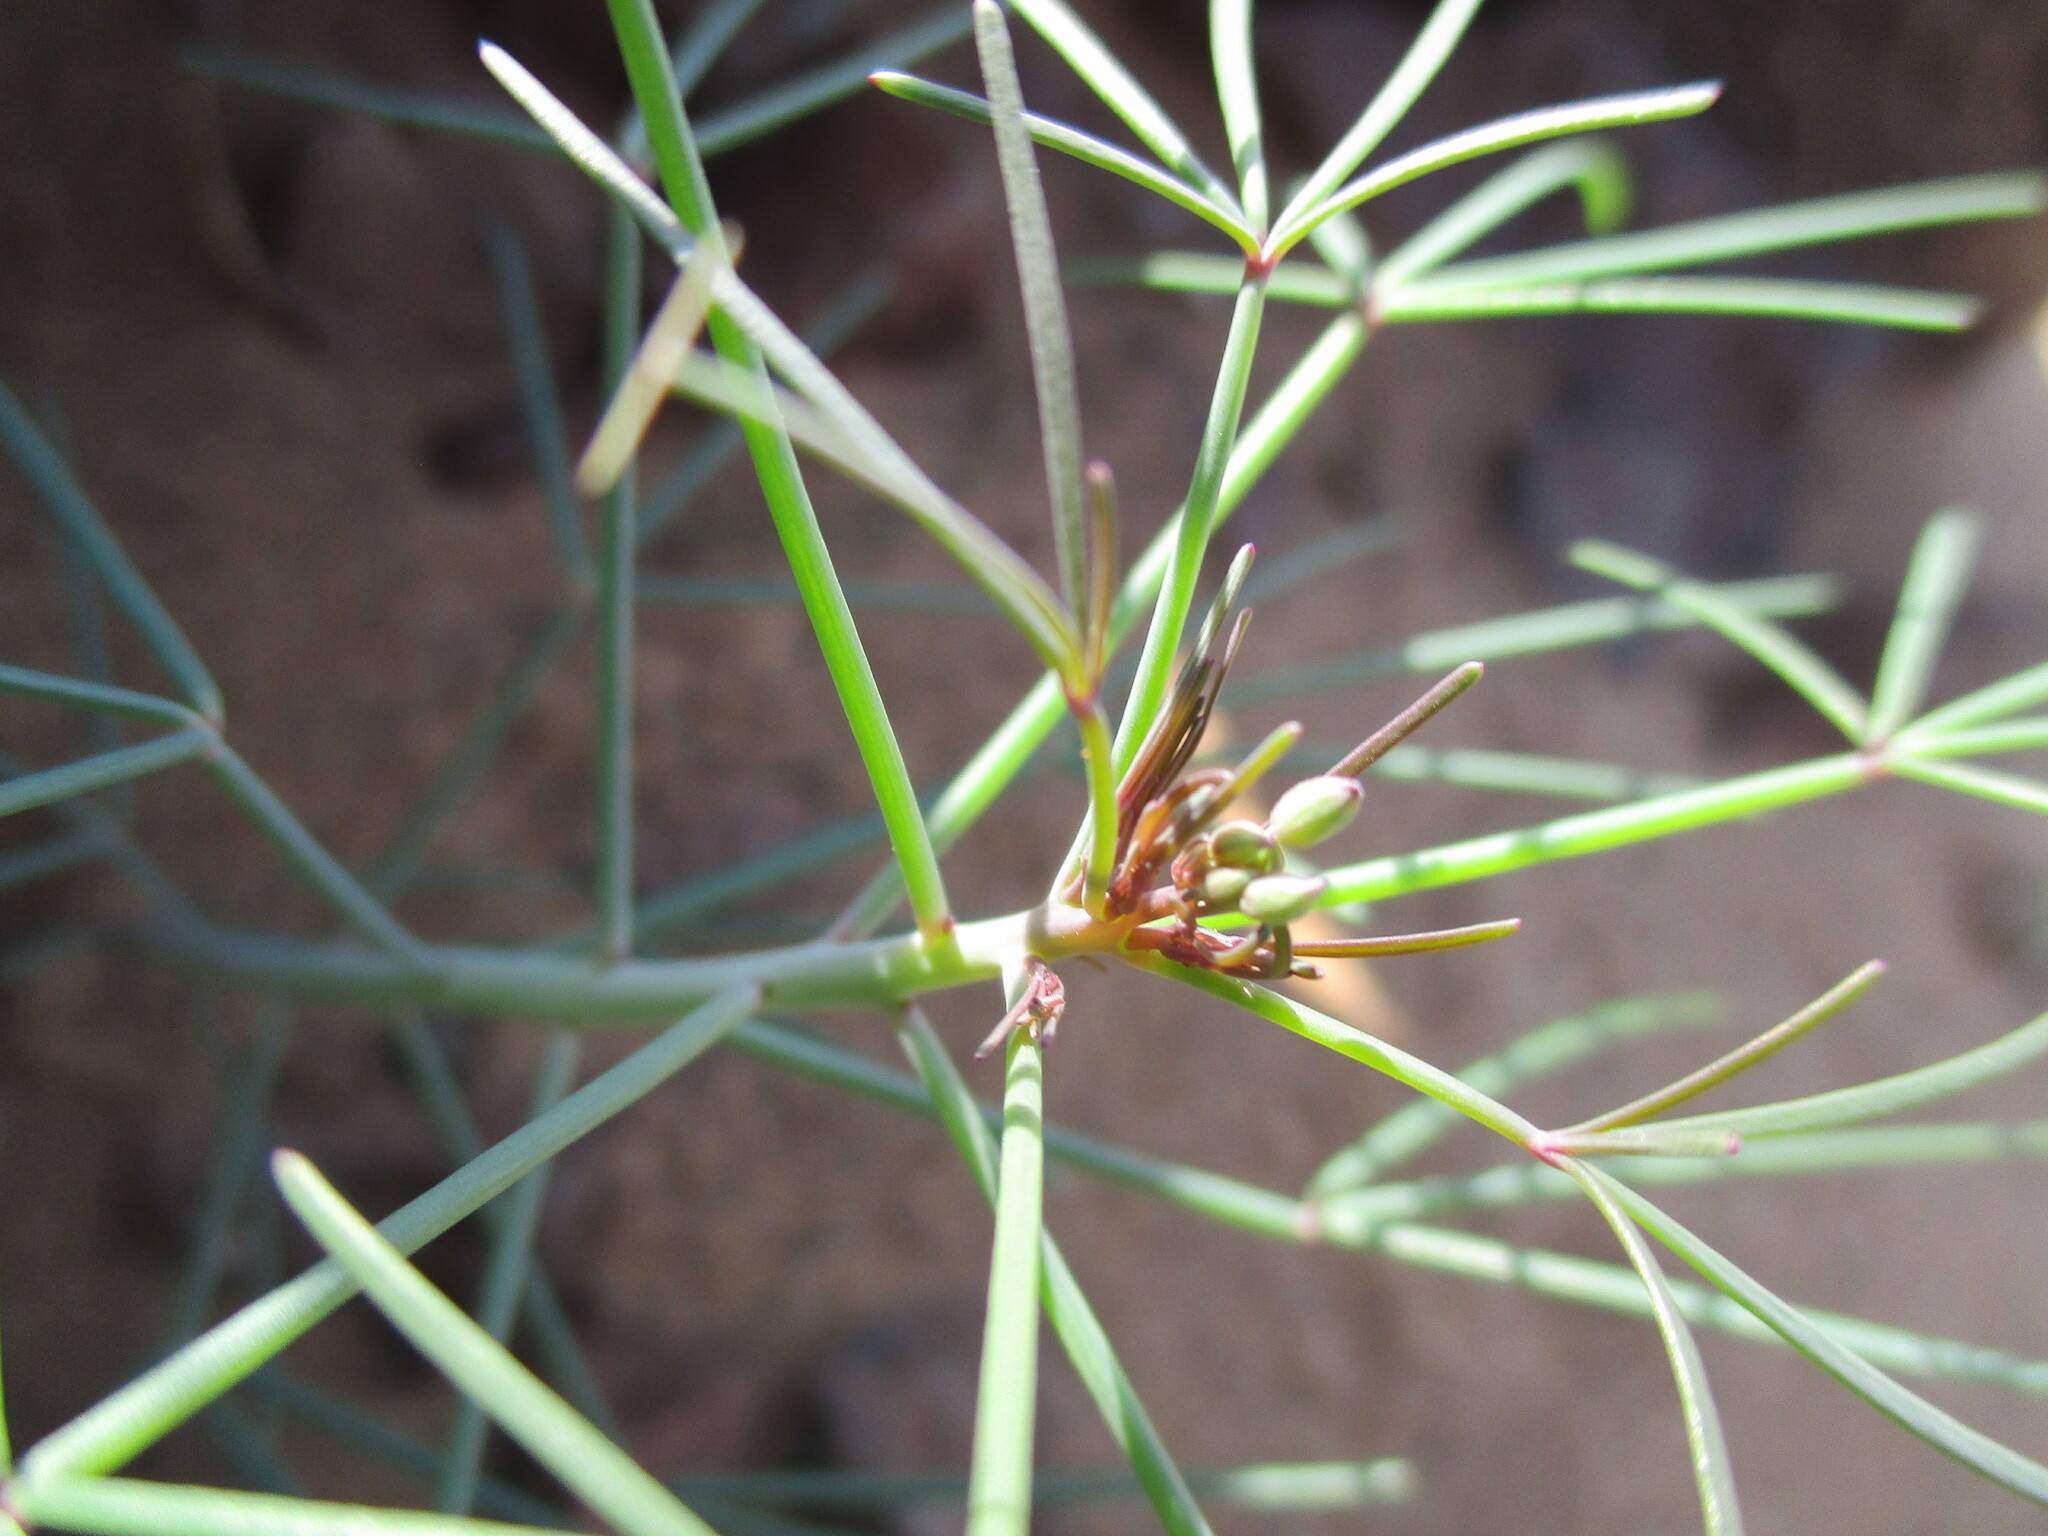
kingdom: Plantae
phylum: Tracheophyta
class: Magnoliopsida
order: Brassicales
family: Cleomaceae
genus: Coalisina
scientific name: Coalisina semitetrandra
